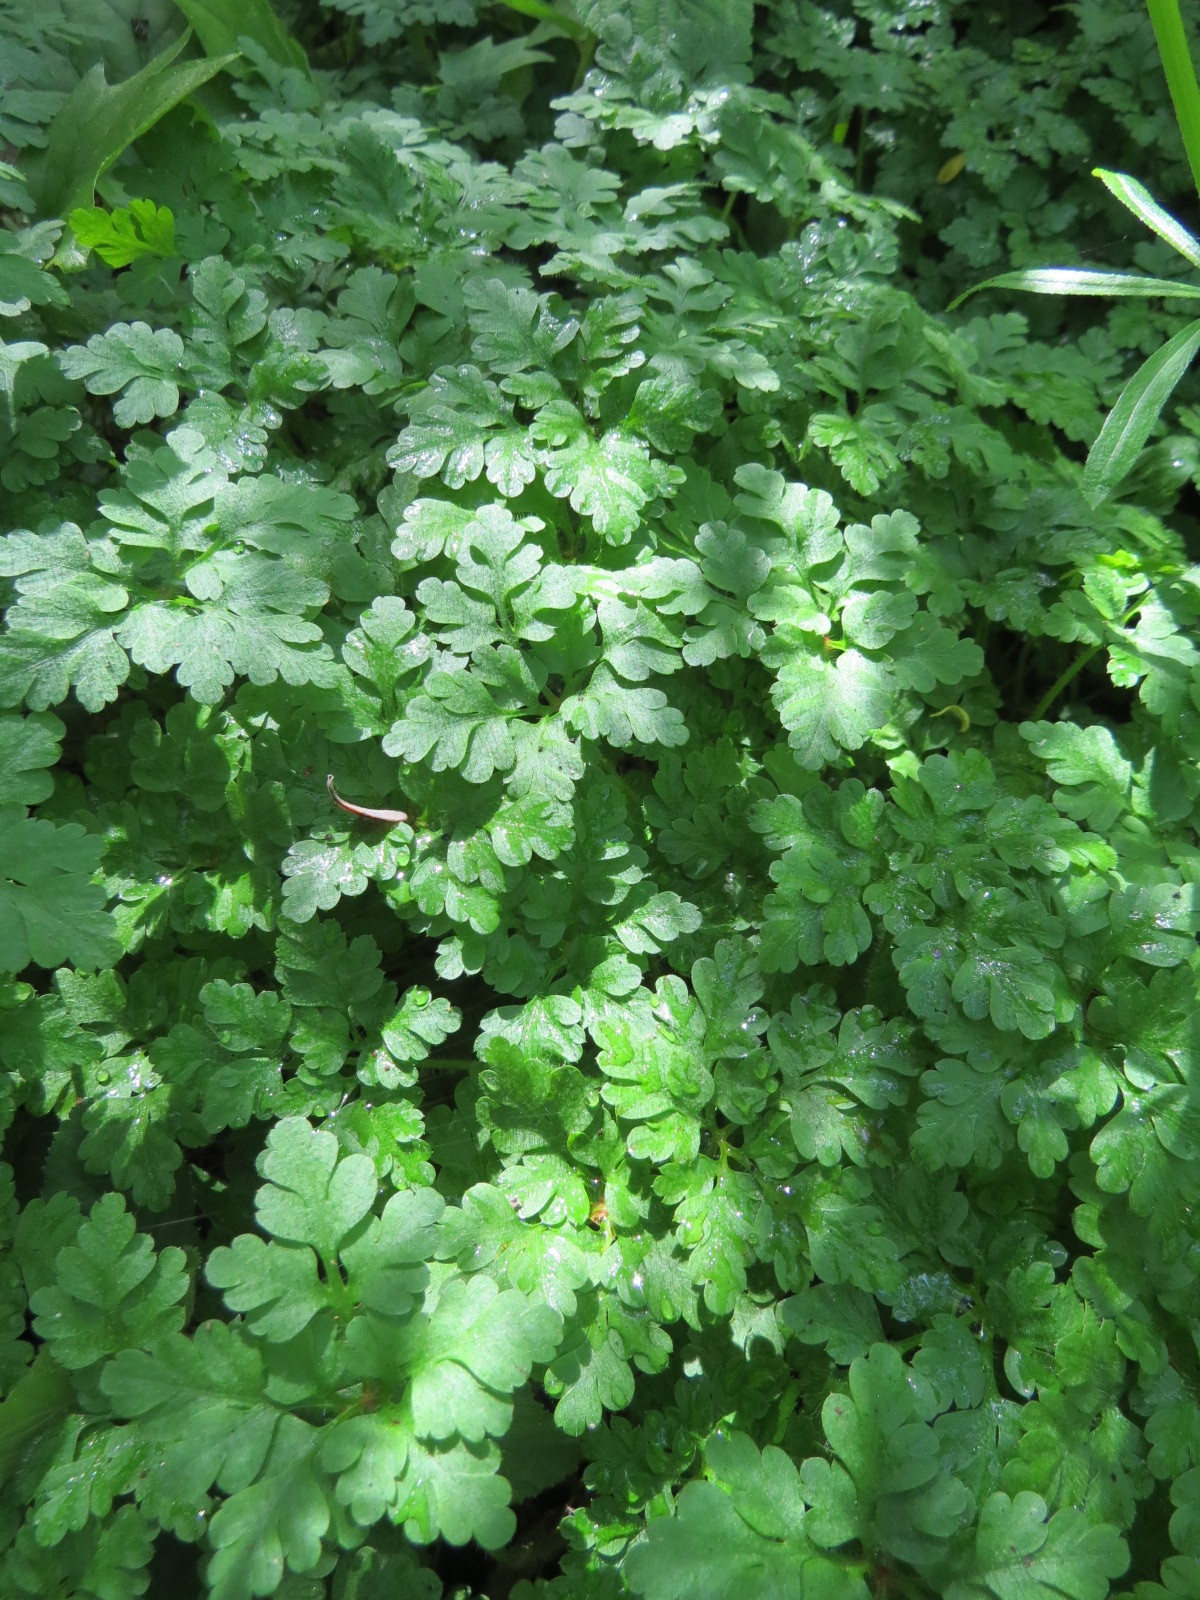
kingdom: Plantae
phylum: Tracheophyta
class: Magnoliopsida
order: Geraniales
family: Geraniaceae
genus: Geranium
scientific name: Geranium
